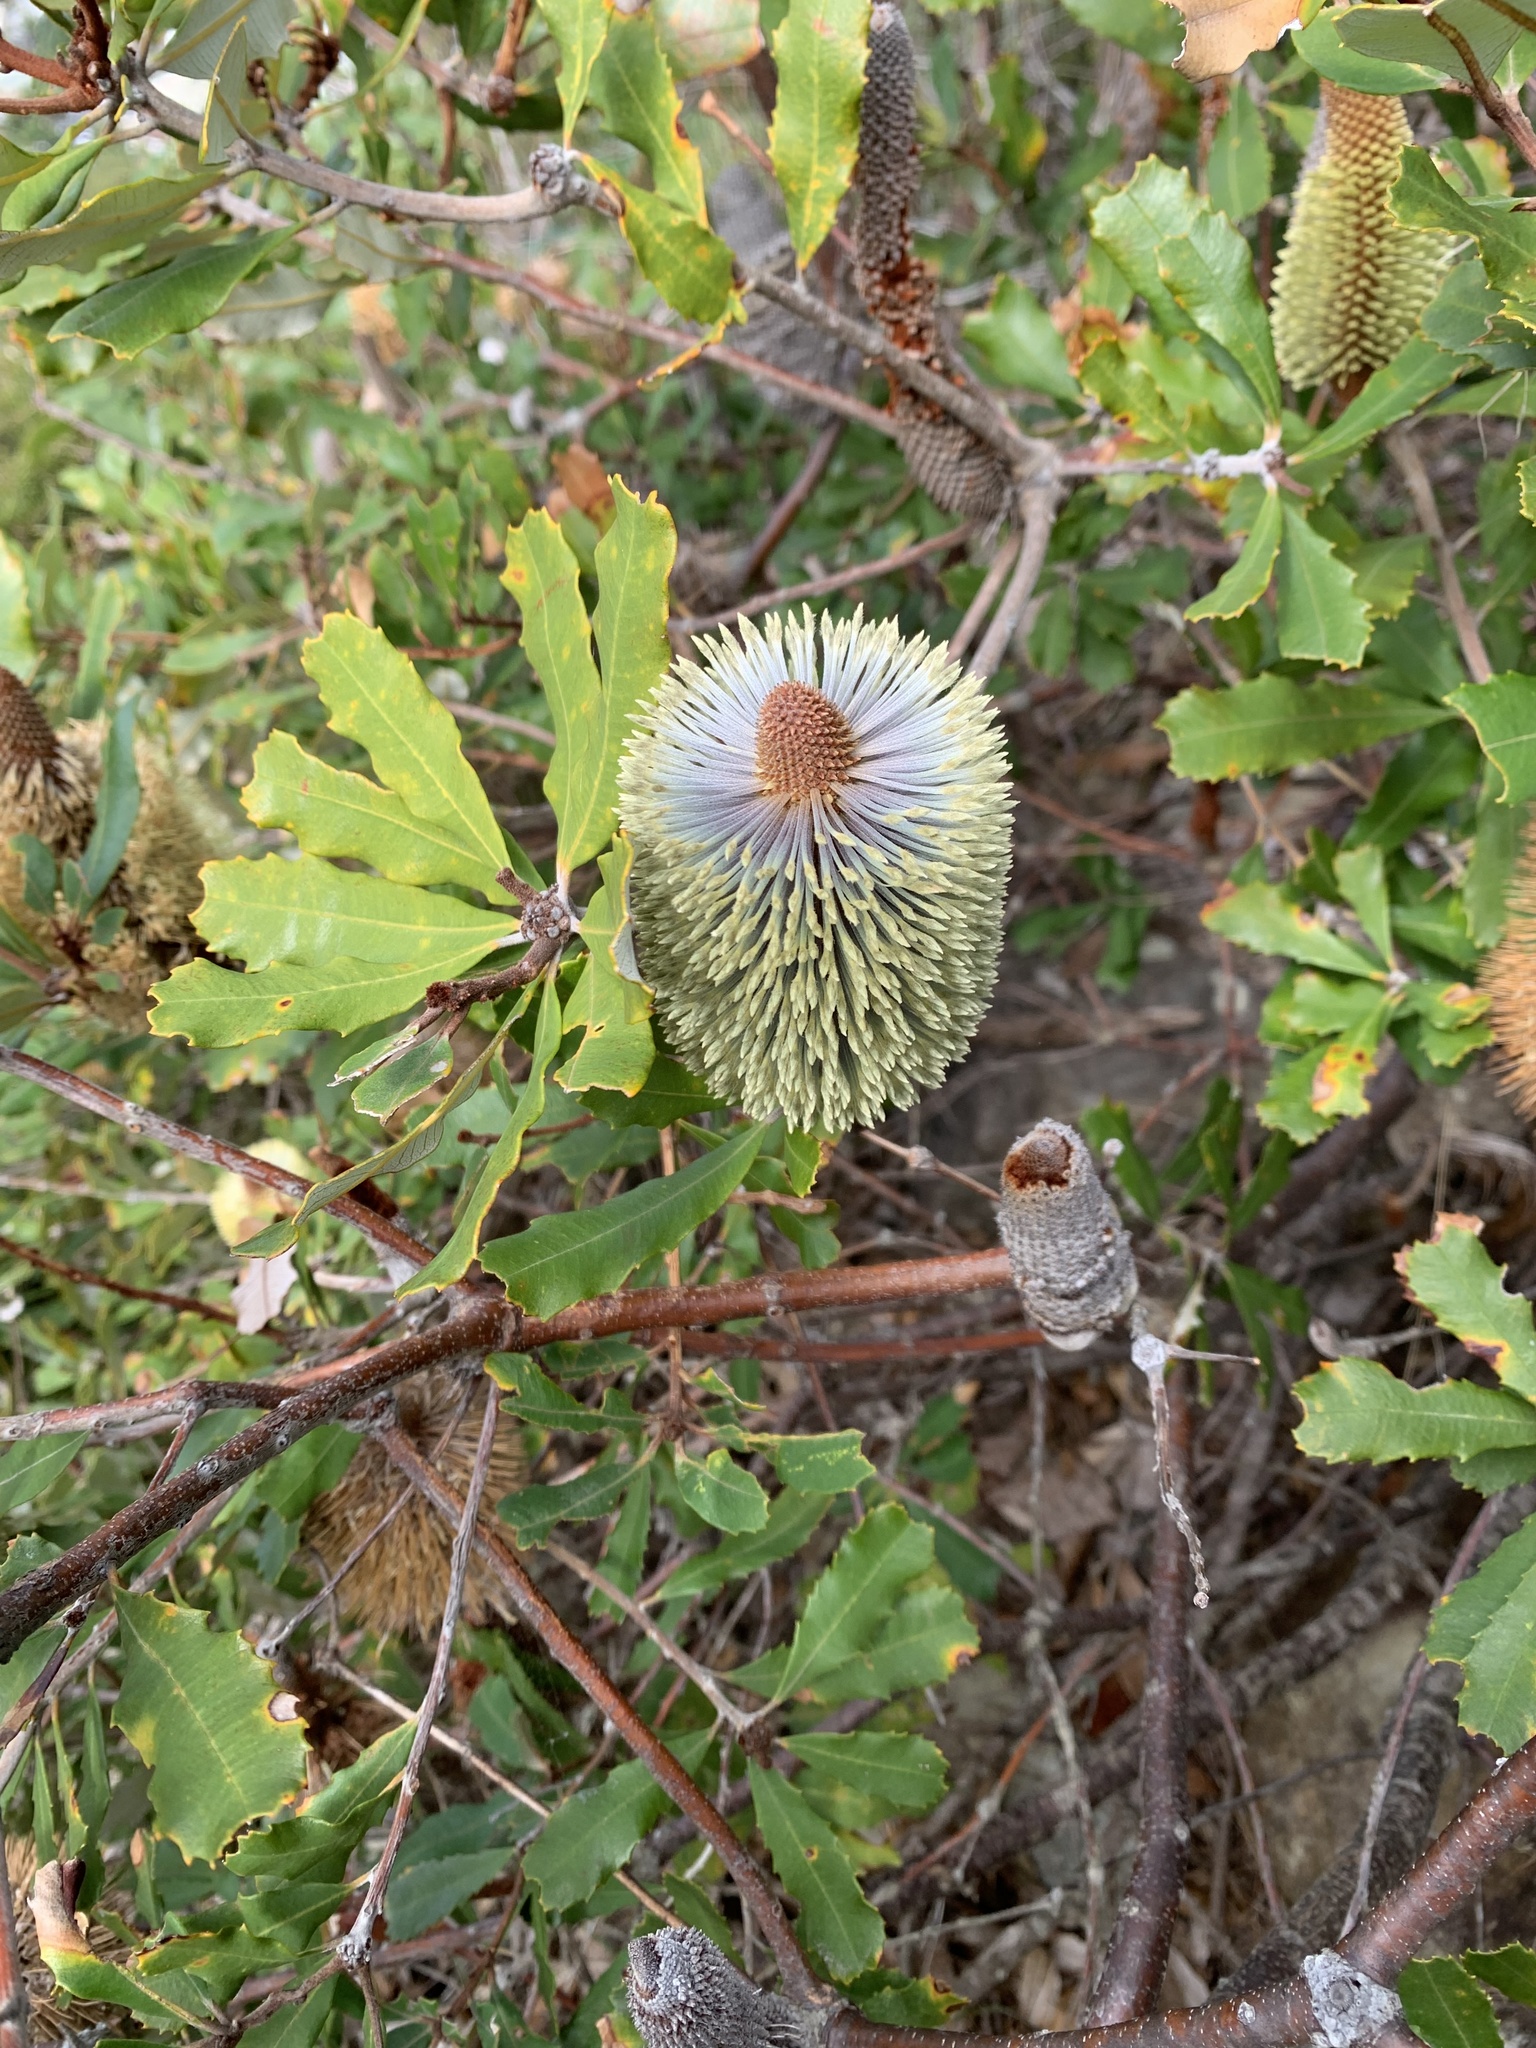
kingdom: Plantae
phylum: Tracheophyta
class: Magnoliopsida
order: Proteales
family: Proteaceae
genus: Banksia
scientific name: Banksia aemula
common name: Wallum banksia
